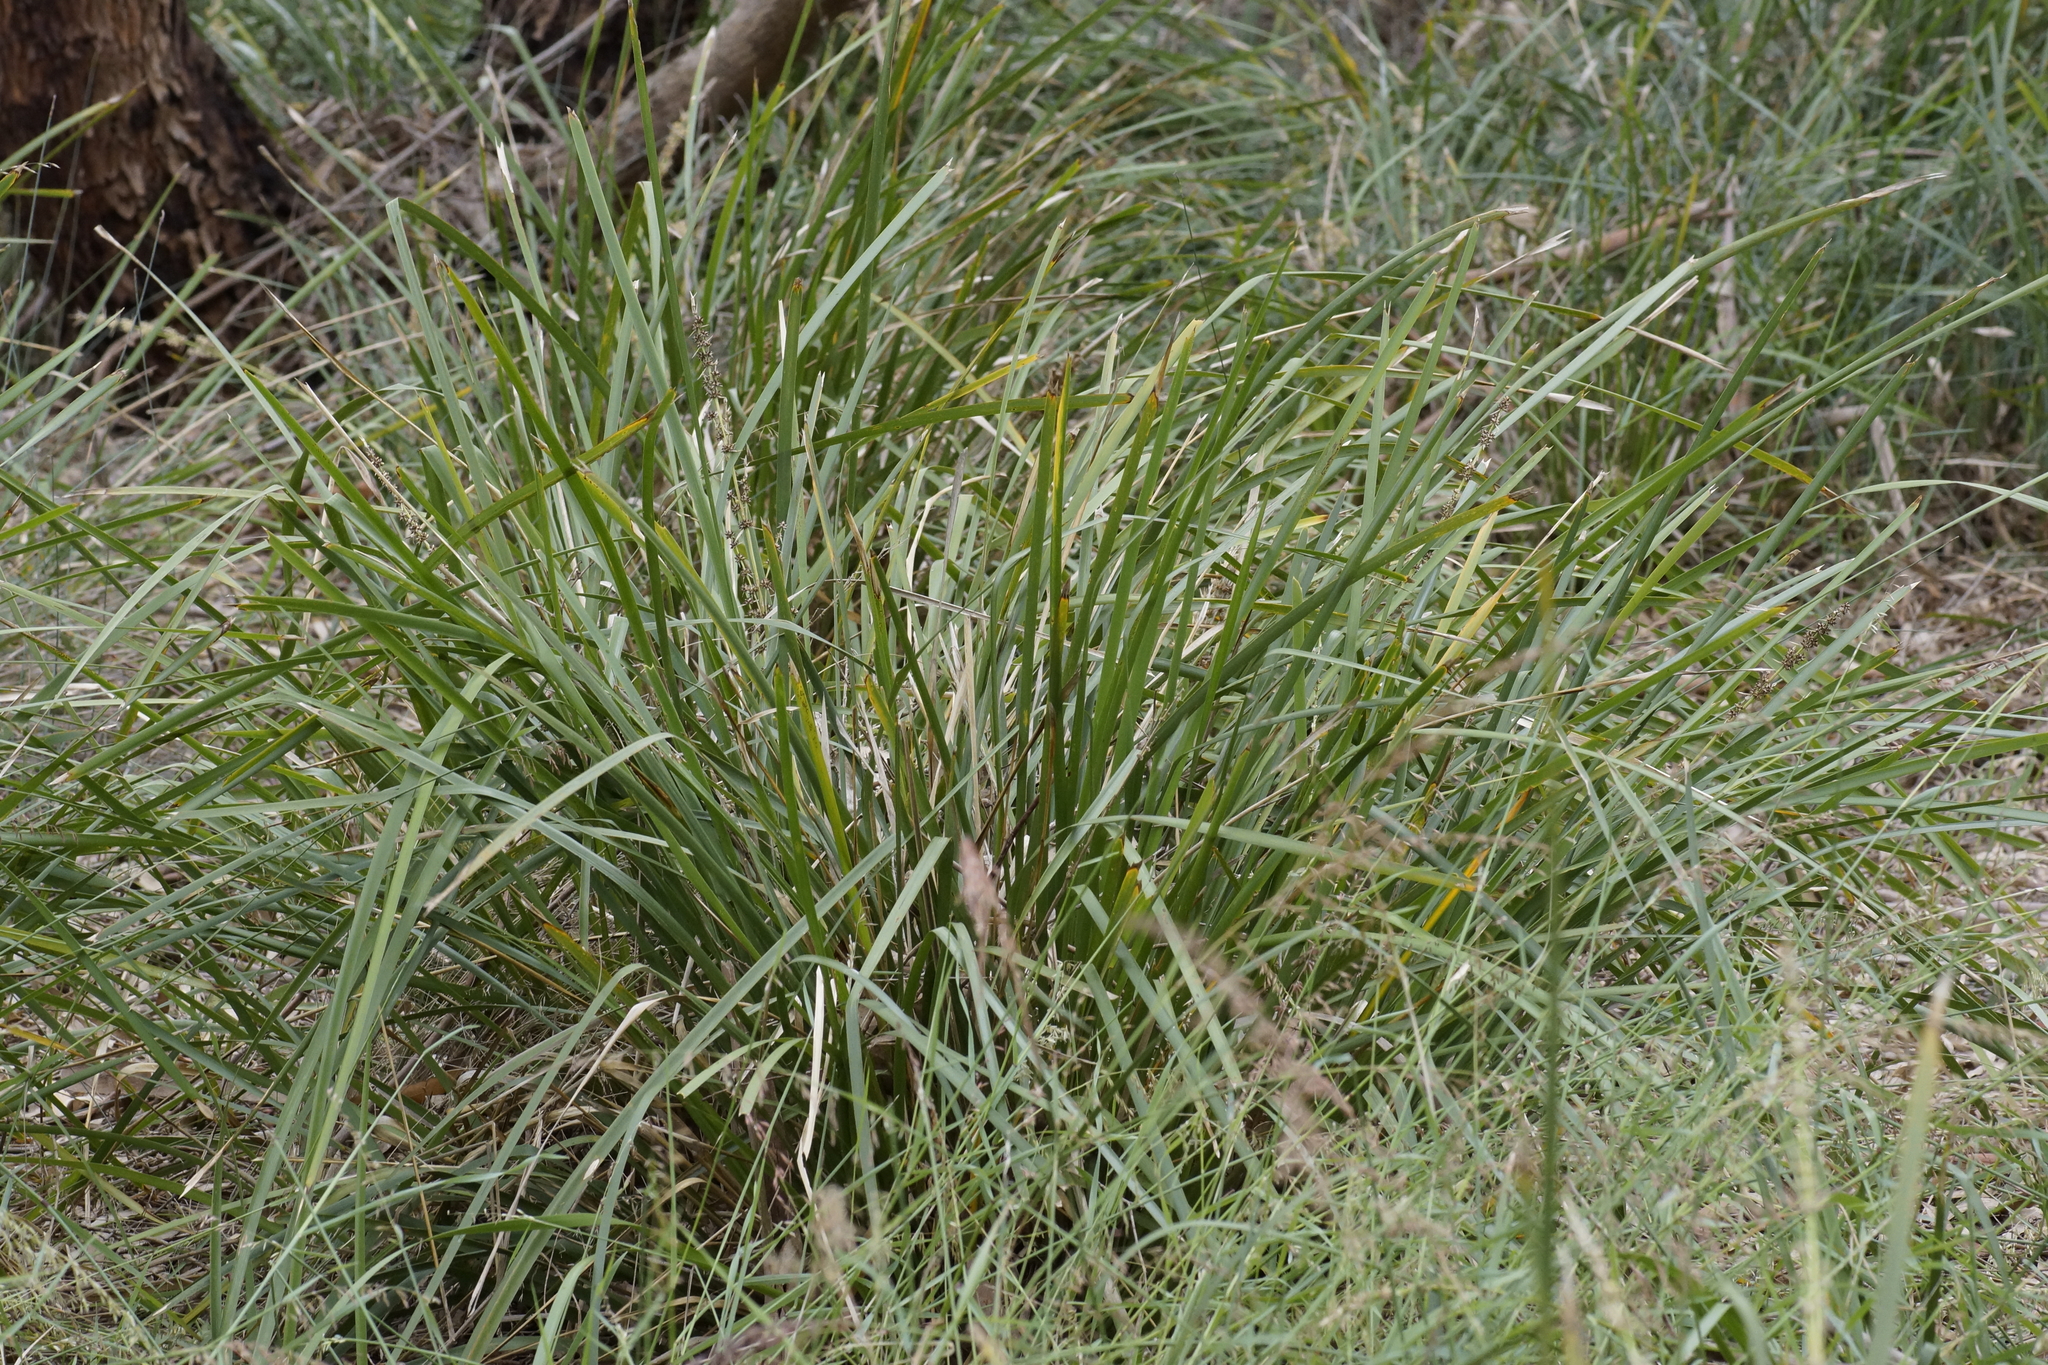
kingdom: Plantae
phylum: Tracheophyta
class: Liliopsida
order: Asparagales
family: Asparagaceae
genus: Lomandra
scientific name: Lomandra longifolia
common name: Longleaf mat-rush
